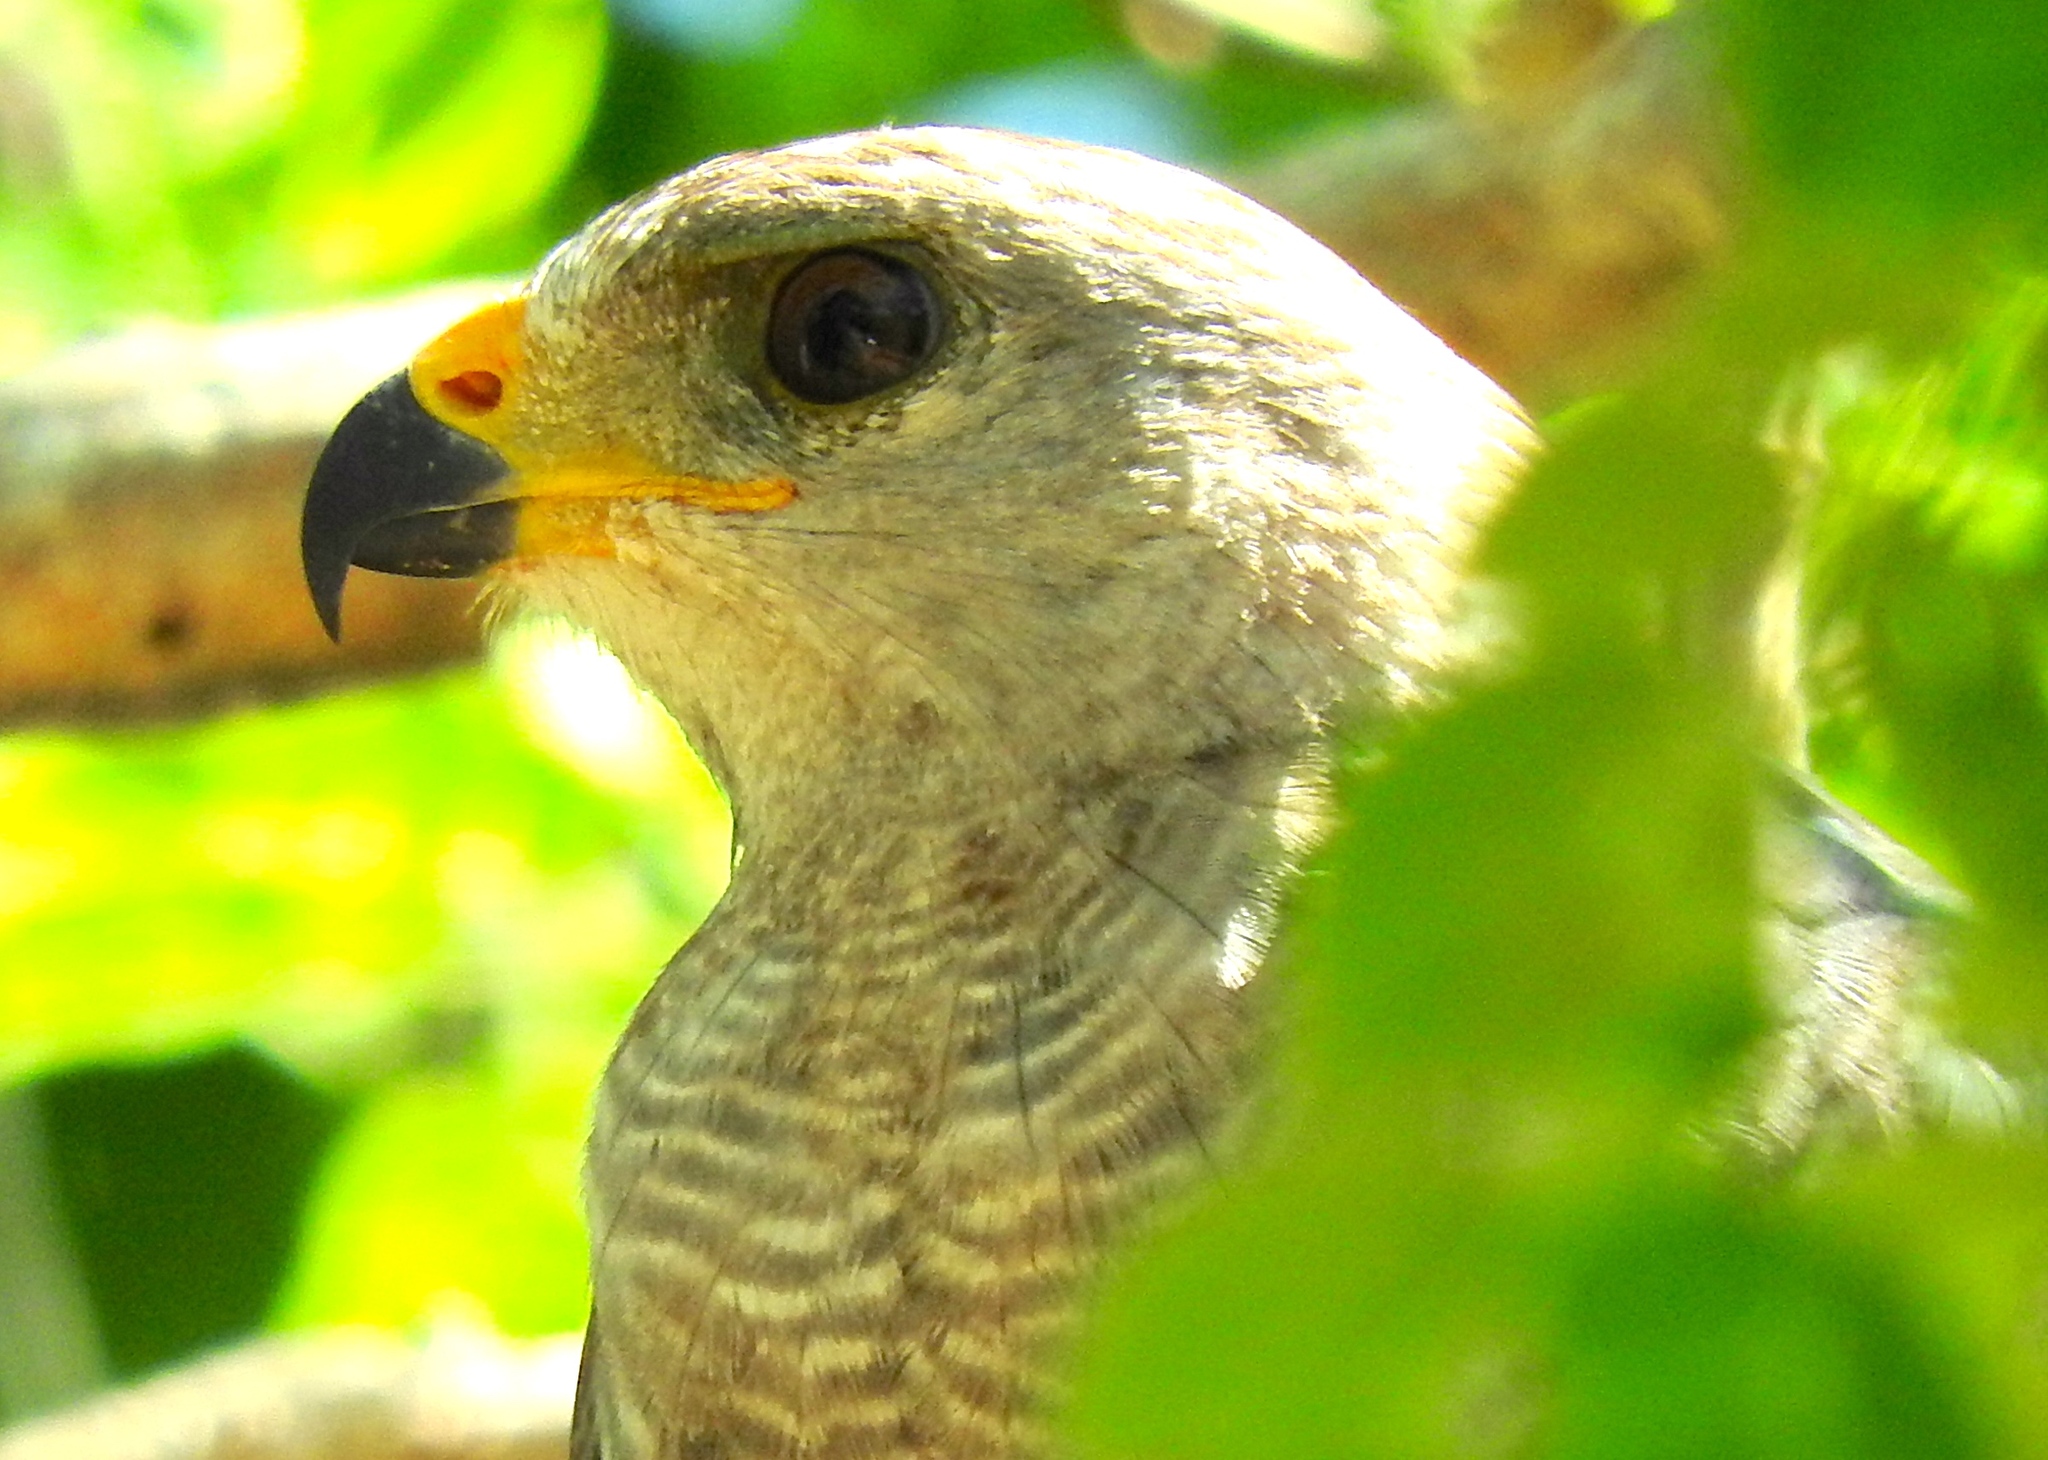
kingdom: Animalia
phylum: Chordata
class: Aves
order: Accipitriformes
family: Accipitridae
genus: Buteo
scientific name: Buteo nitidus
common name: Grey-lined hawk
